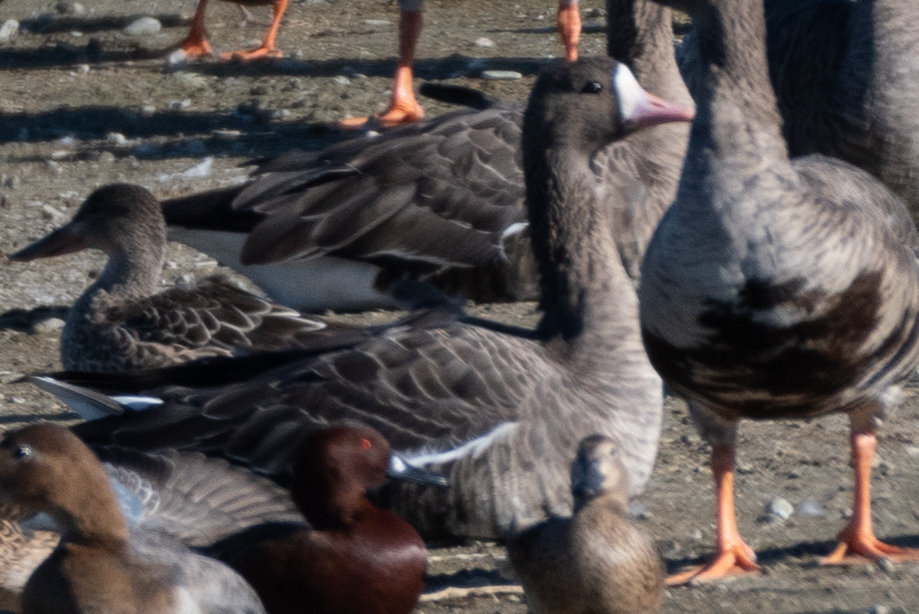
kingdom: Animalia
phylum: Chordata
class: Aves
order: Anseriformes
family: Anatidae
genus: Anser
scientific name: Anser albifrons
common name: Greater white-fronted goose
